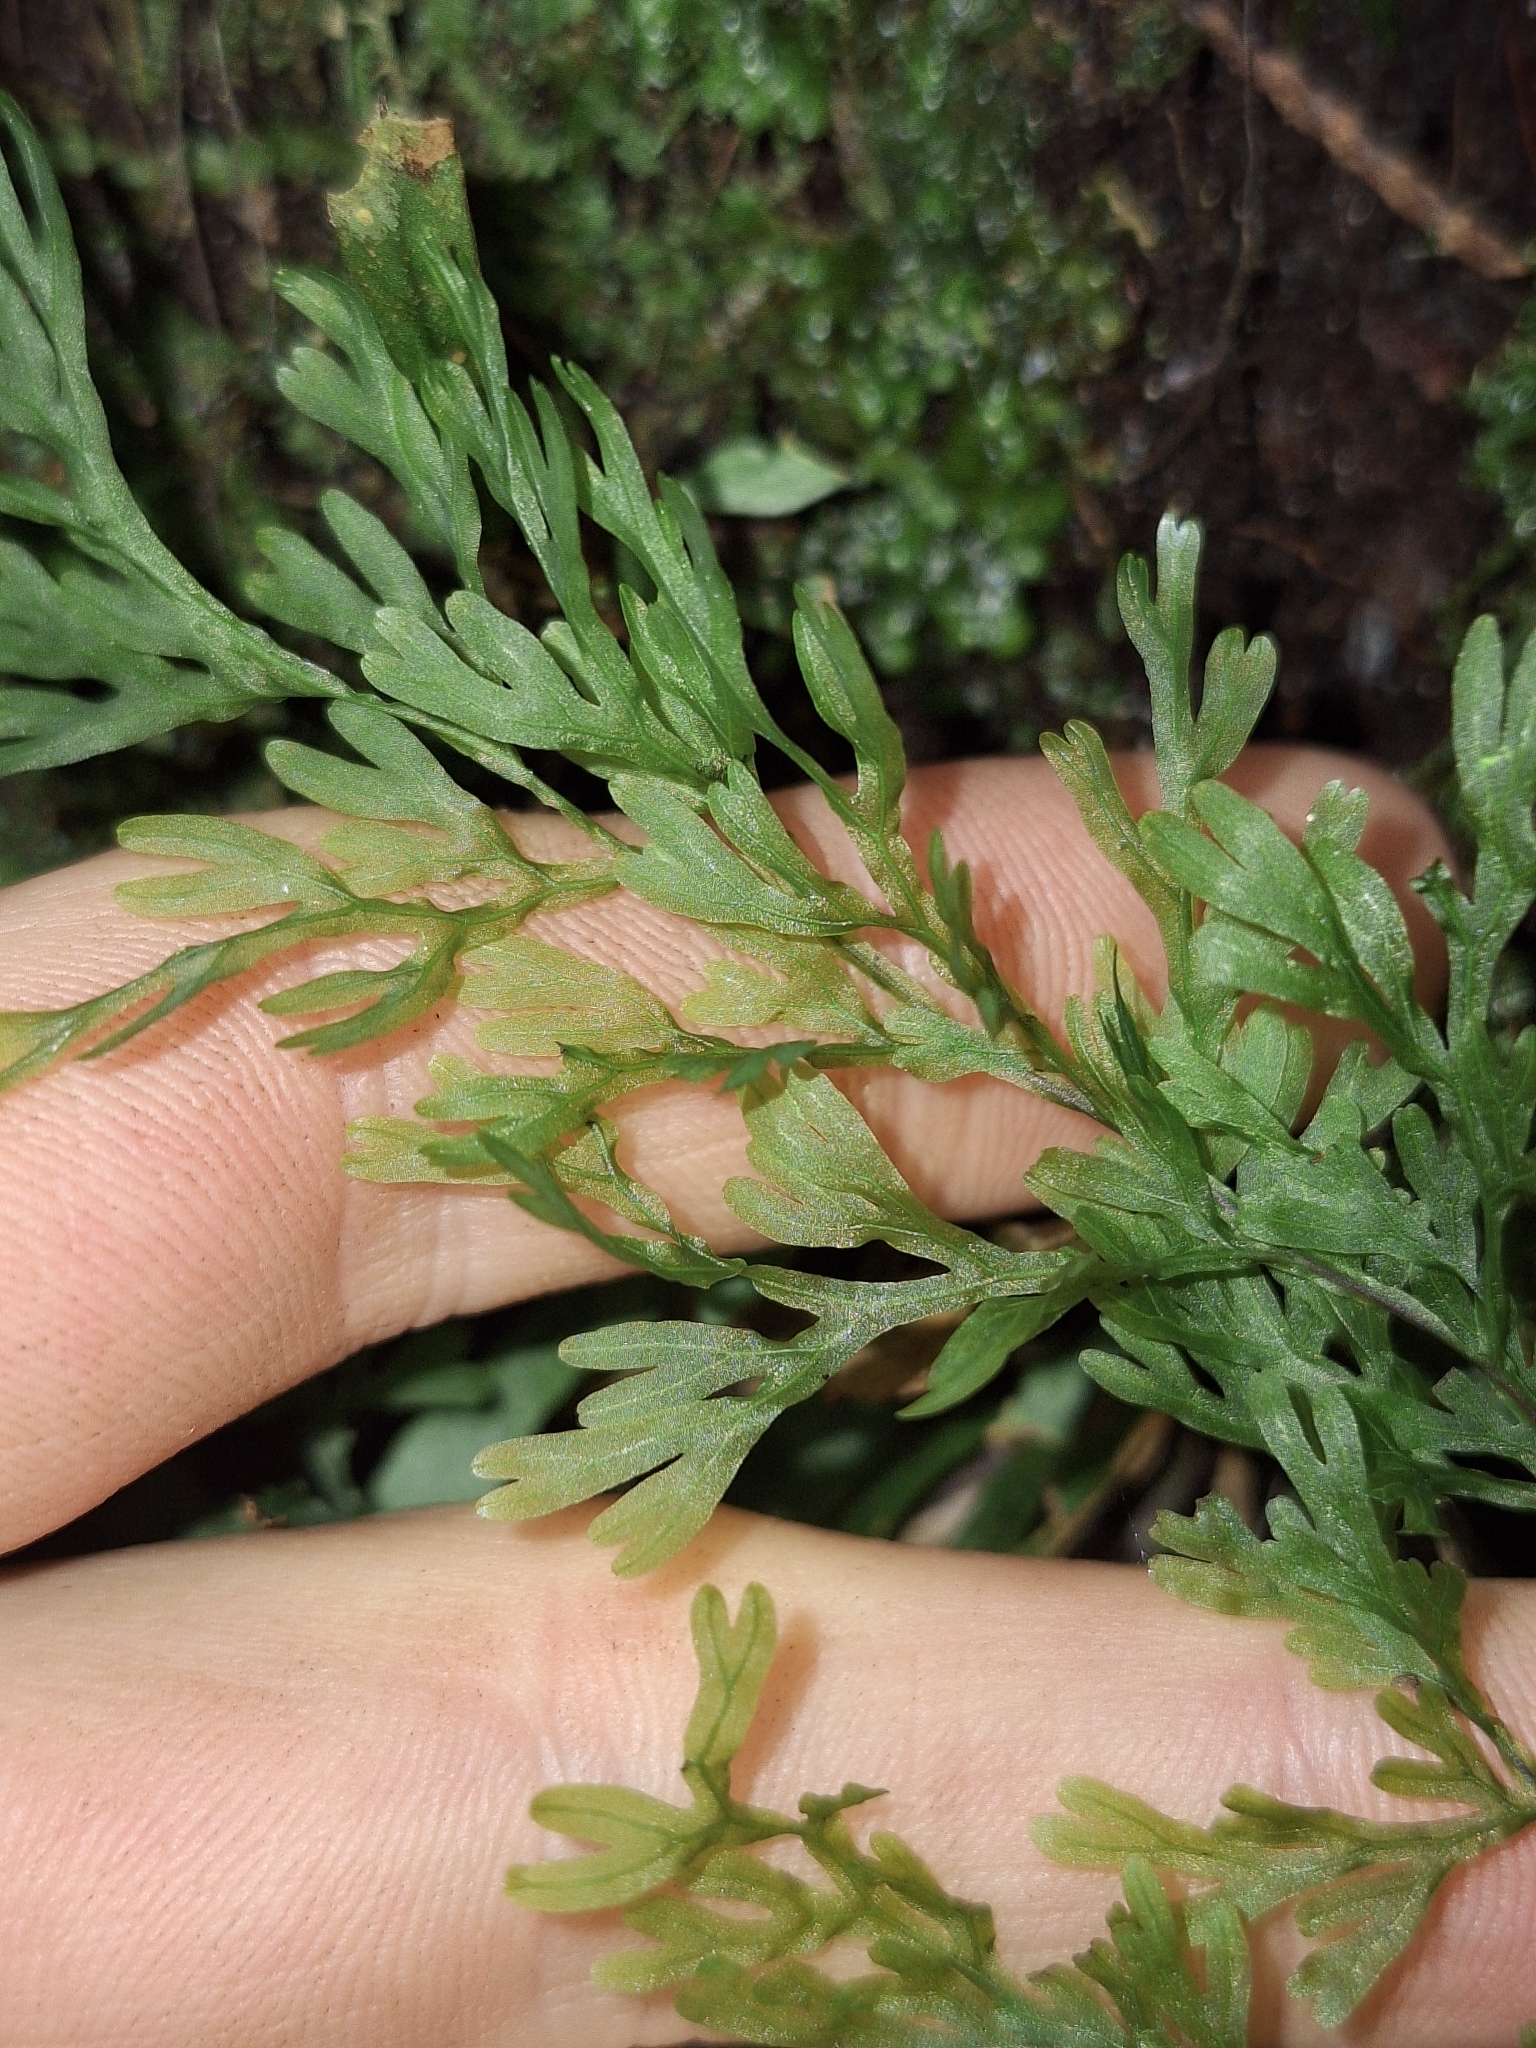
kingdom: Plantae
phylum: Tracheophyta
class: Liliopsida
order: Poales
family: Cyperaceae
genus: Carex
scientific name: Carex zotovii
